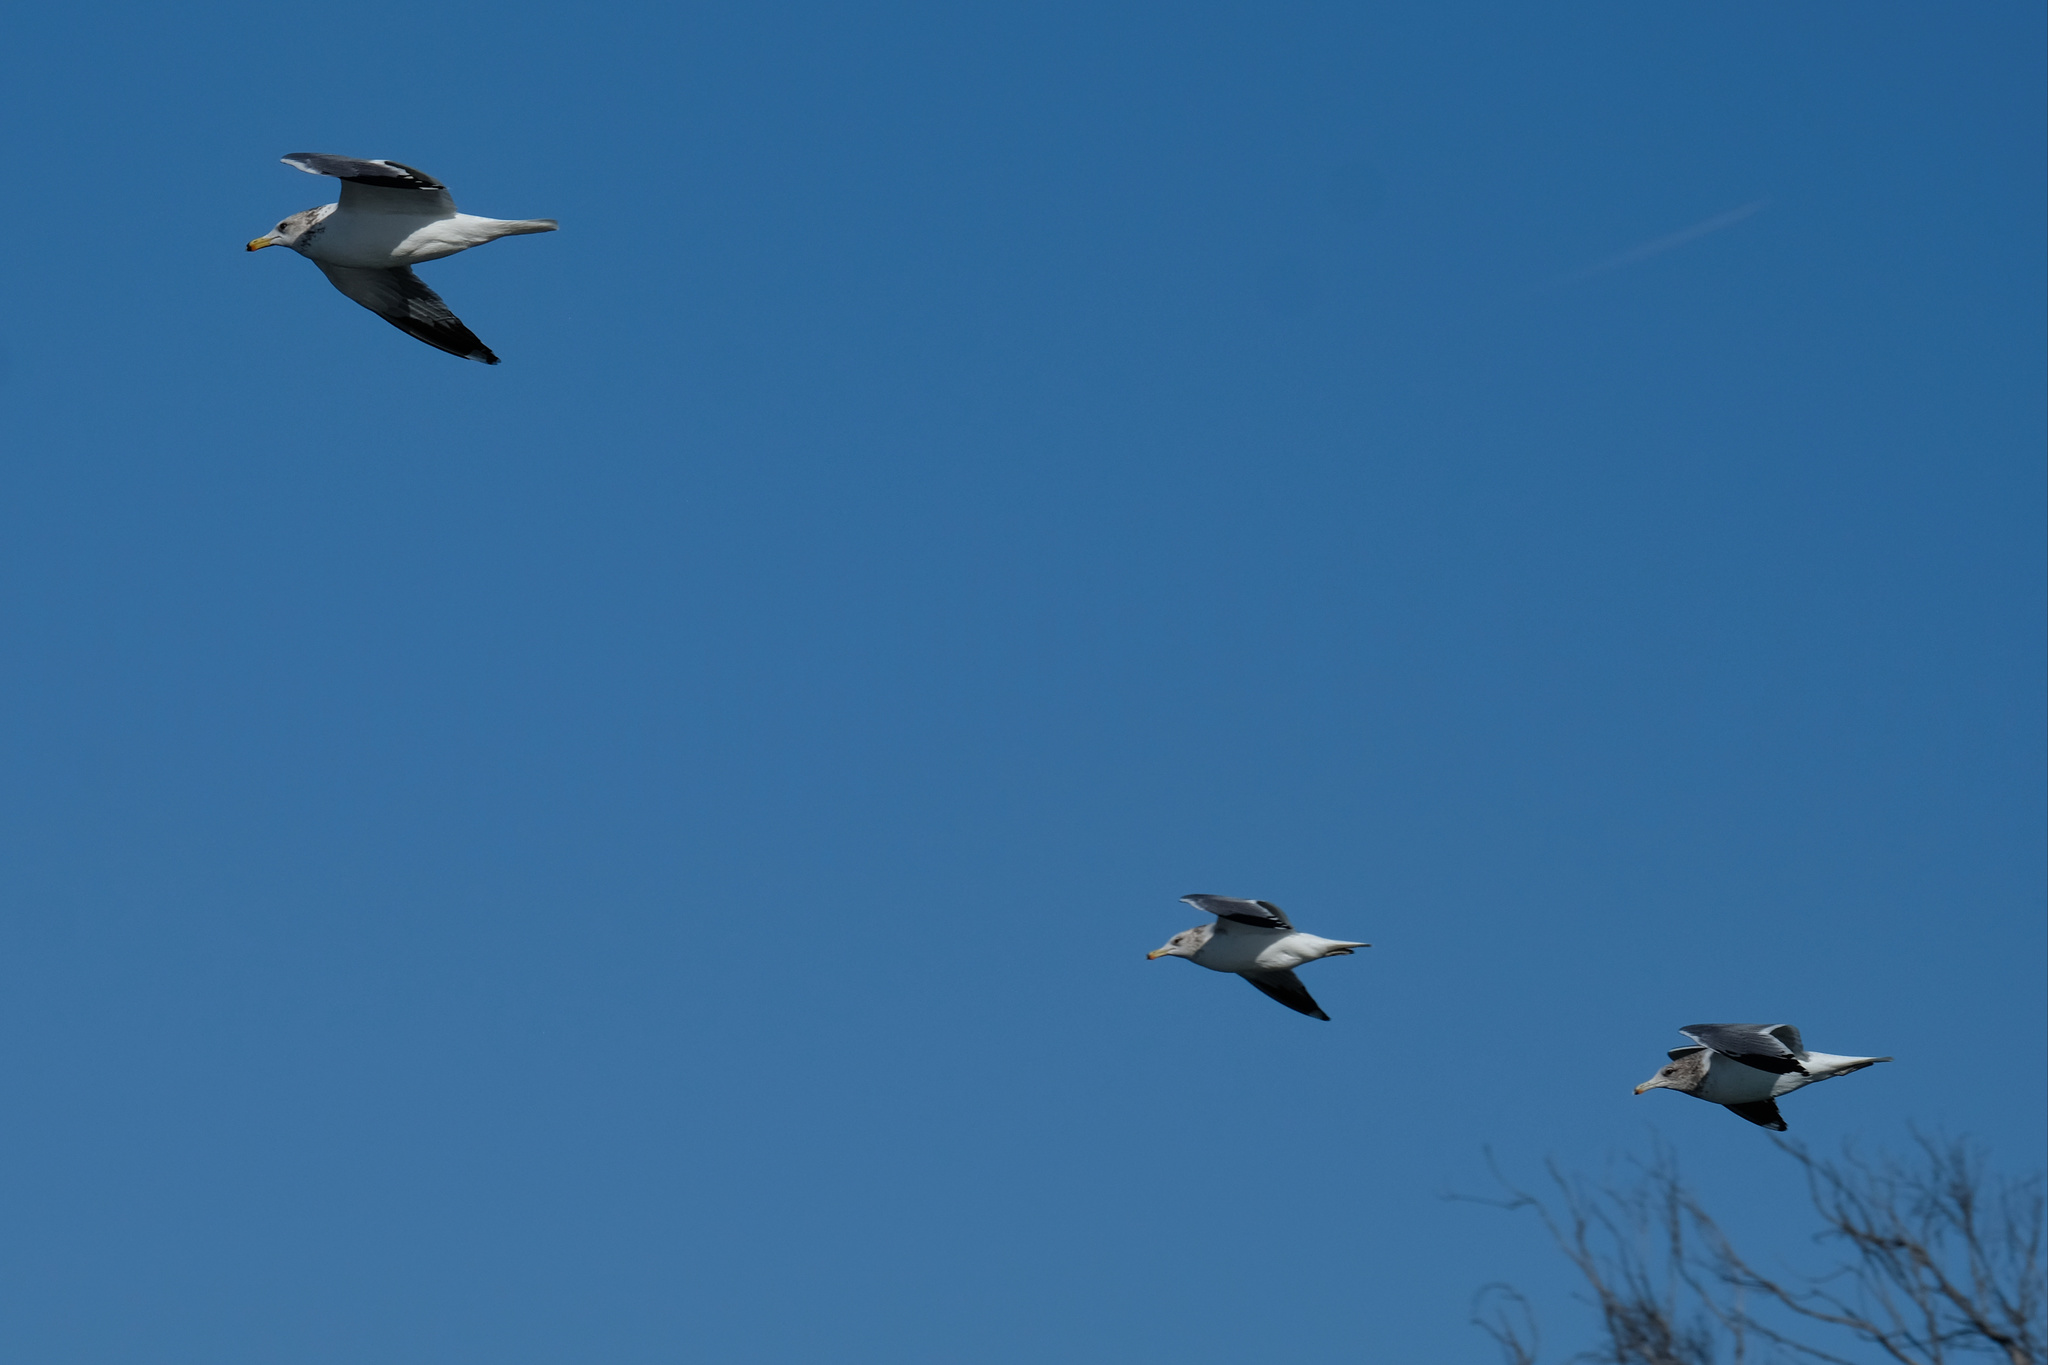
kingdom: Animalia
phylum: Chordata
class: Aves
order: Charadriiformes
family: Laridae
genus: Larus
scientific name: Larus californicus
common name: California gull
